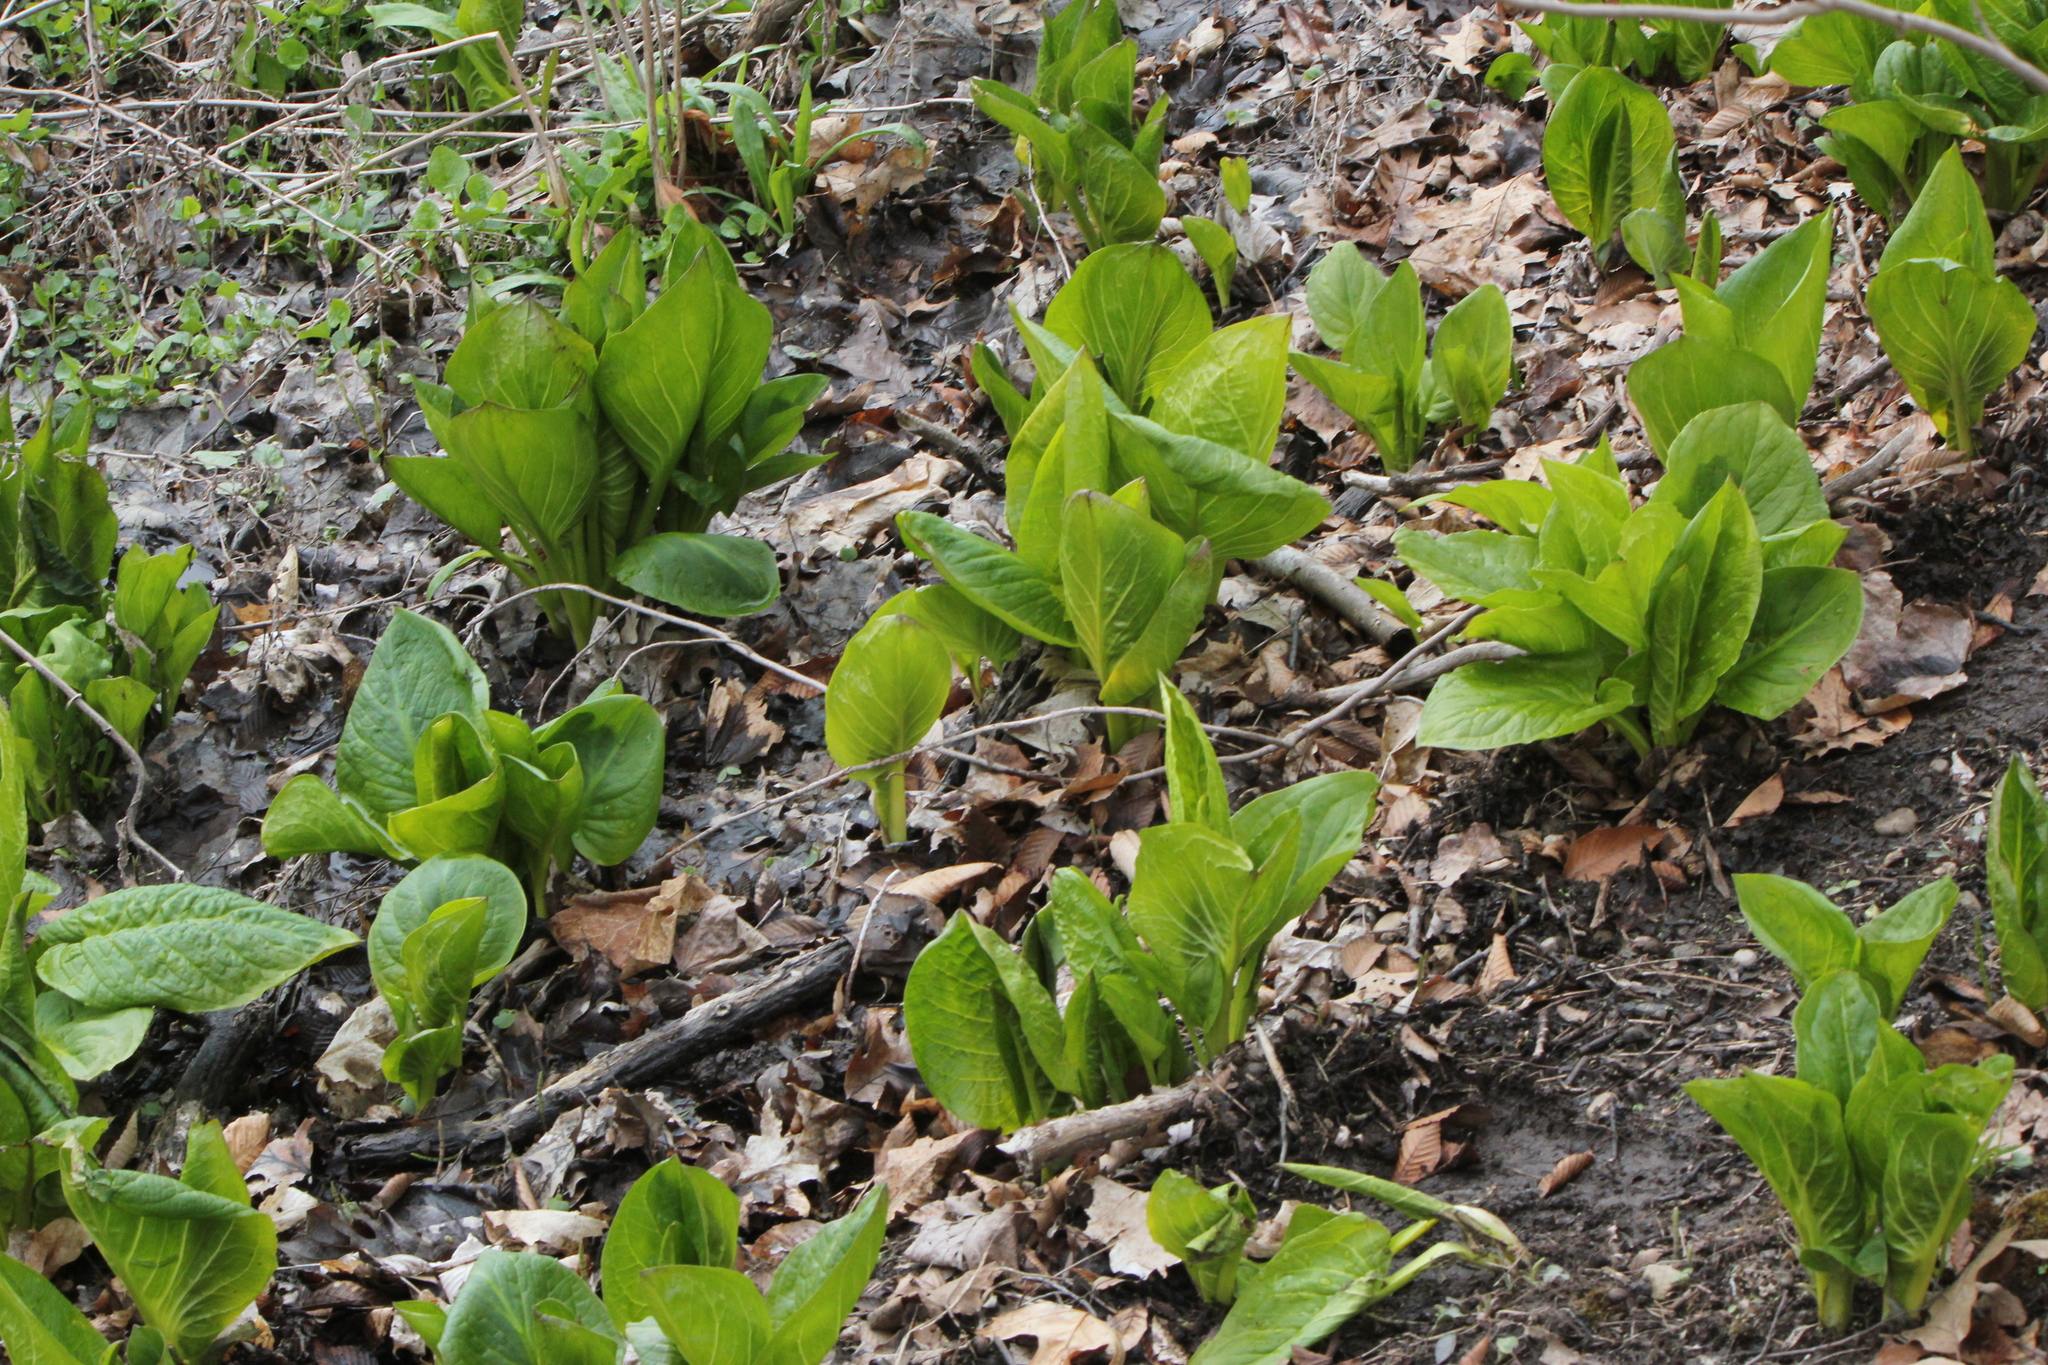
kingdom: Plantae
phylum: Tracheophyta
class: Liliopsida
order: Alismatales
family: Araceae
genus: Symplocarpus
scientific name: Symplocarpus foetidus
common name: Eastern skunk cabbage
